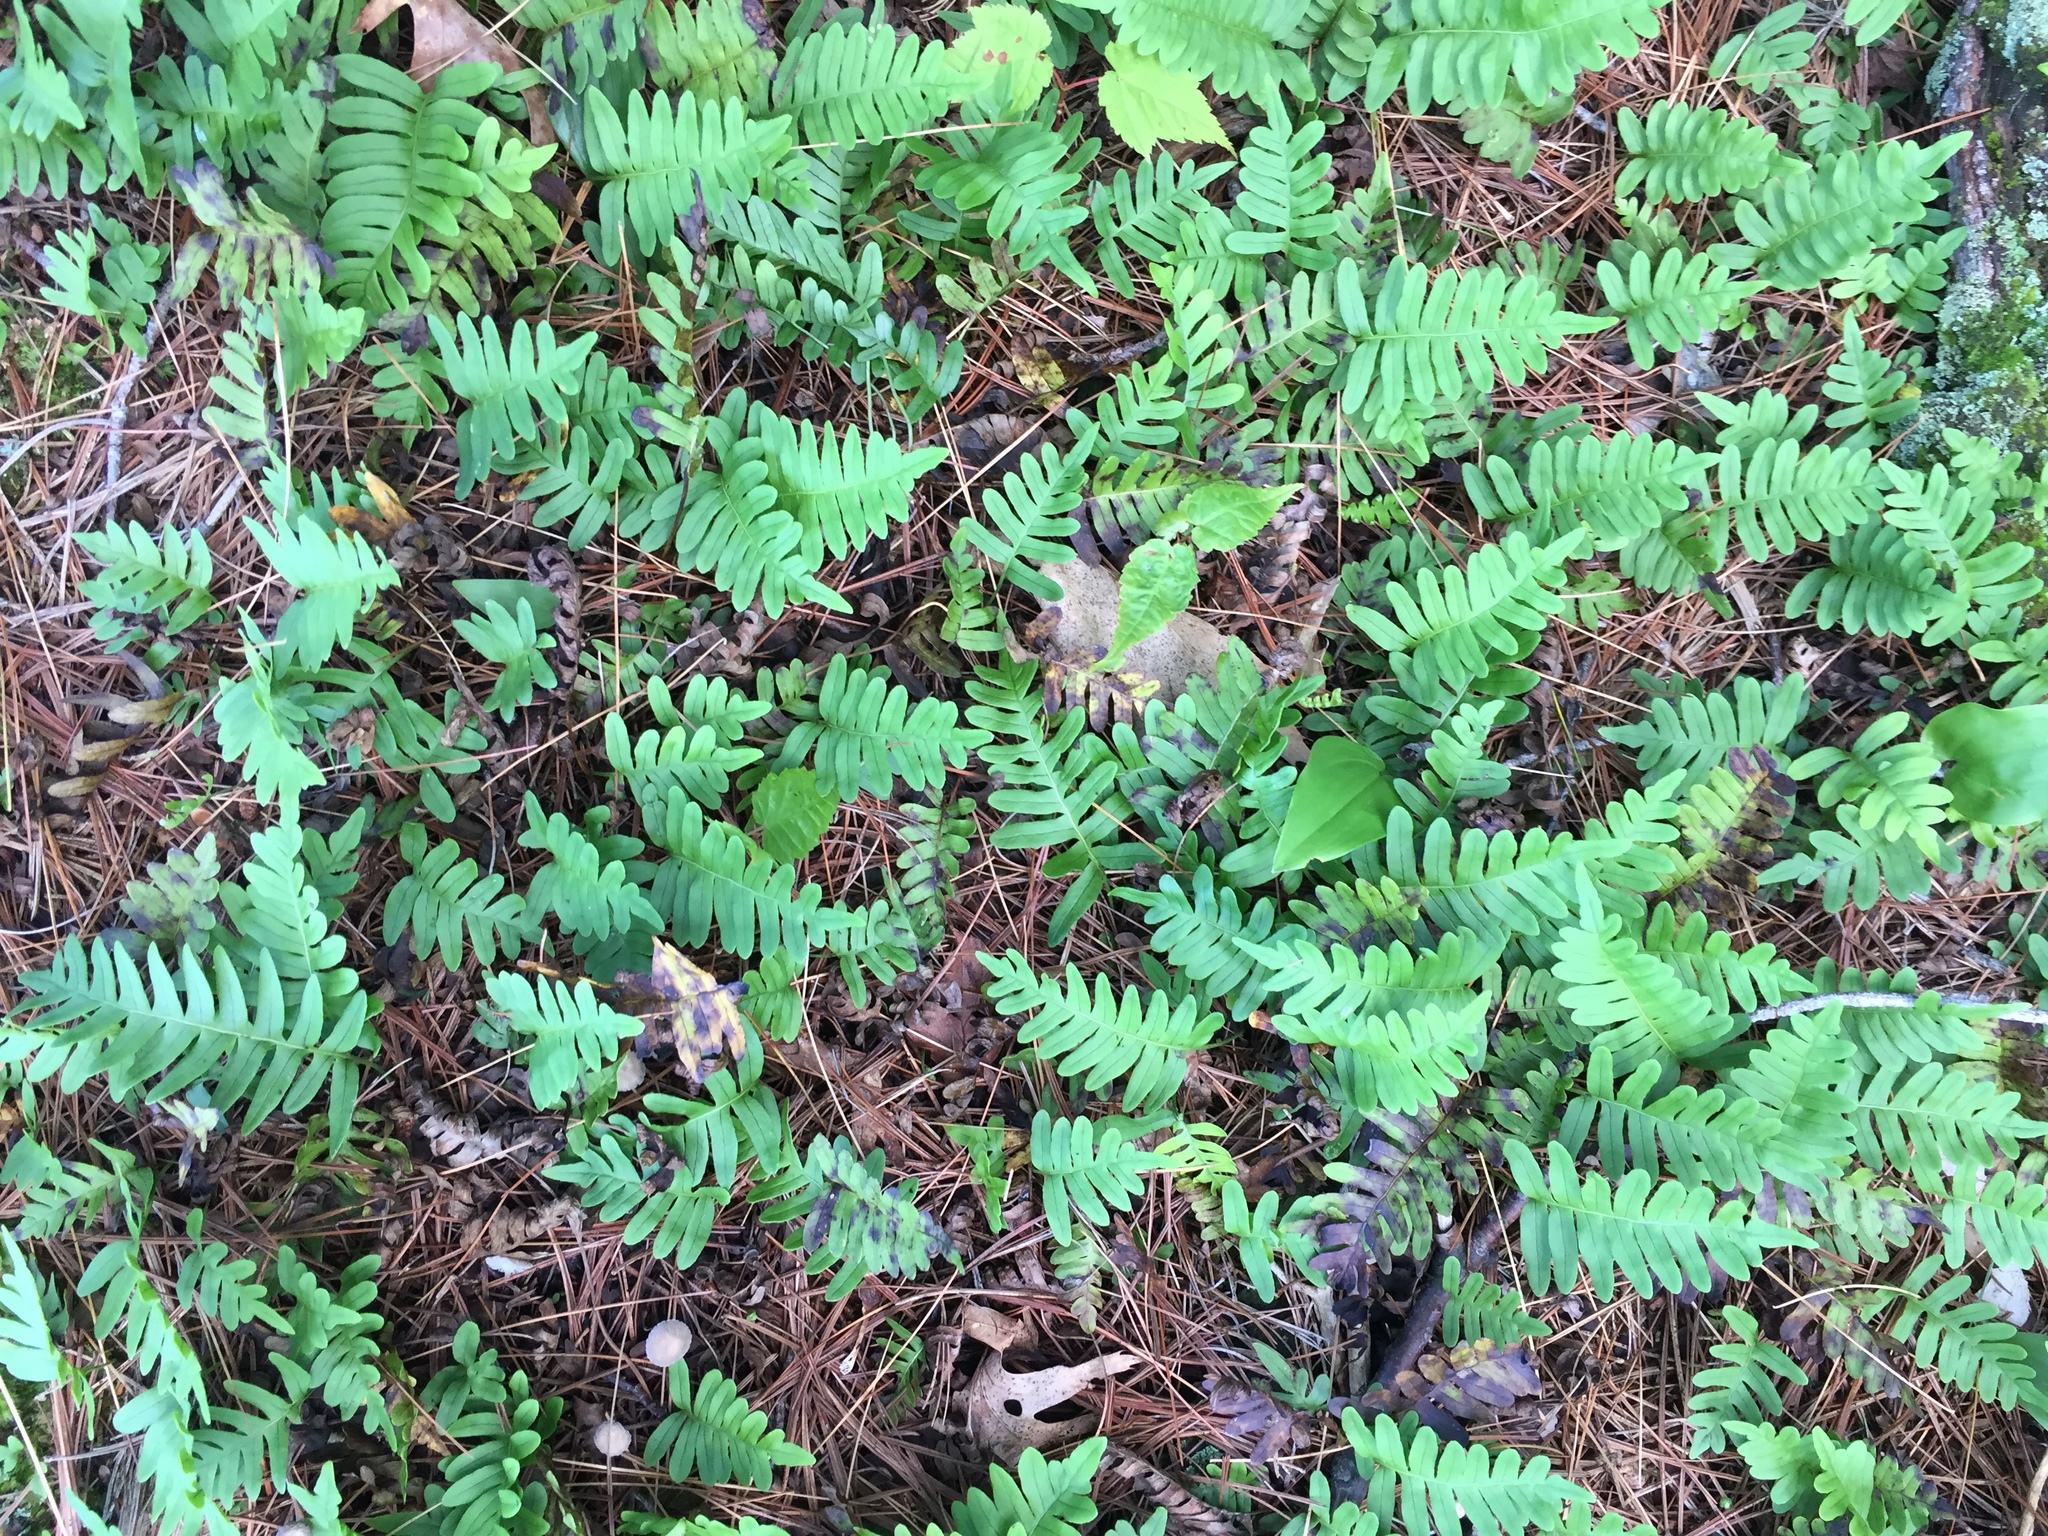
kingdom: Plantae
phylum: Tracheophyta
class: Polypodiopsida
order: Polypodiales
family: Polypodiaceae
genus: Polypodium
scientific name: Polypodium virginianum
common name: American wall fern
